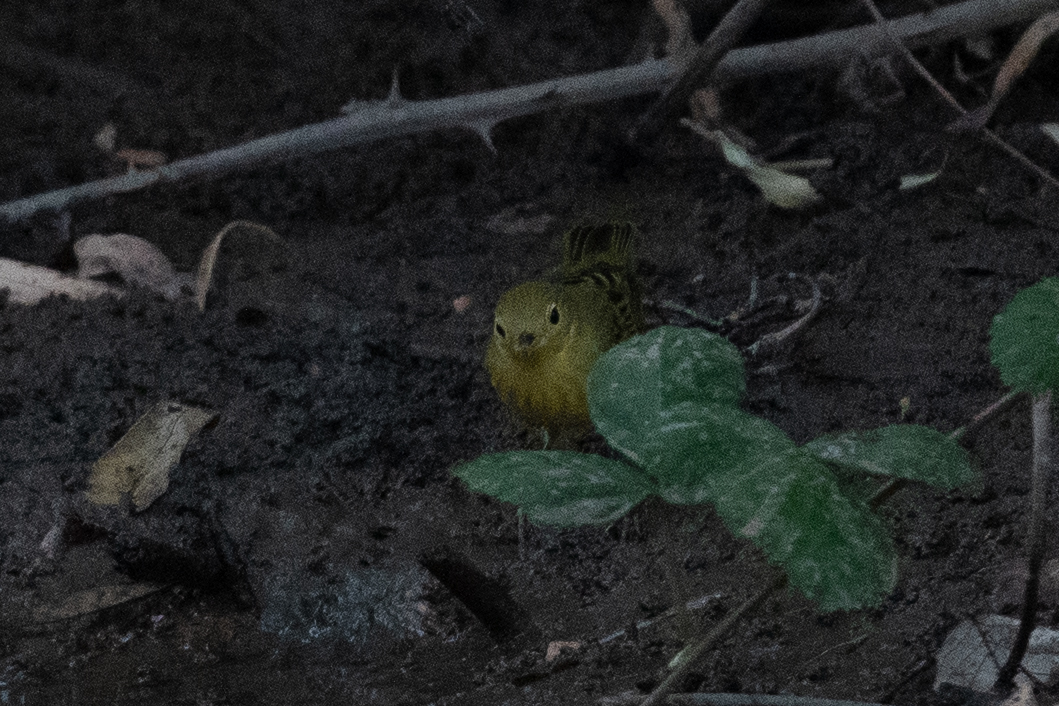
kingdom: Animalia
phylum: Chordata
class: Aves
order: Passeriformes
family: Parulidae
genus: Setophaga
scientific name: Setophaga petechia
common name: Yellow warbler
